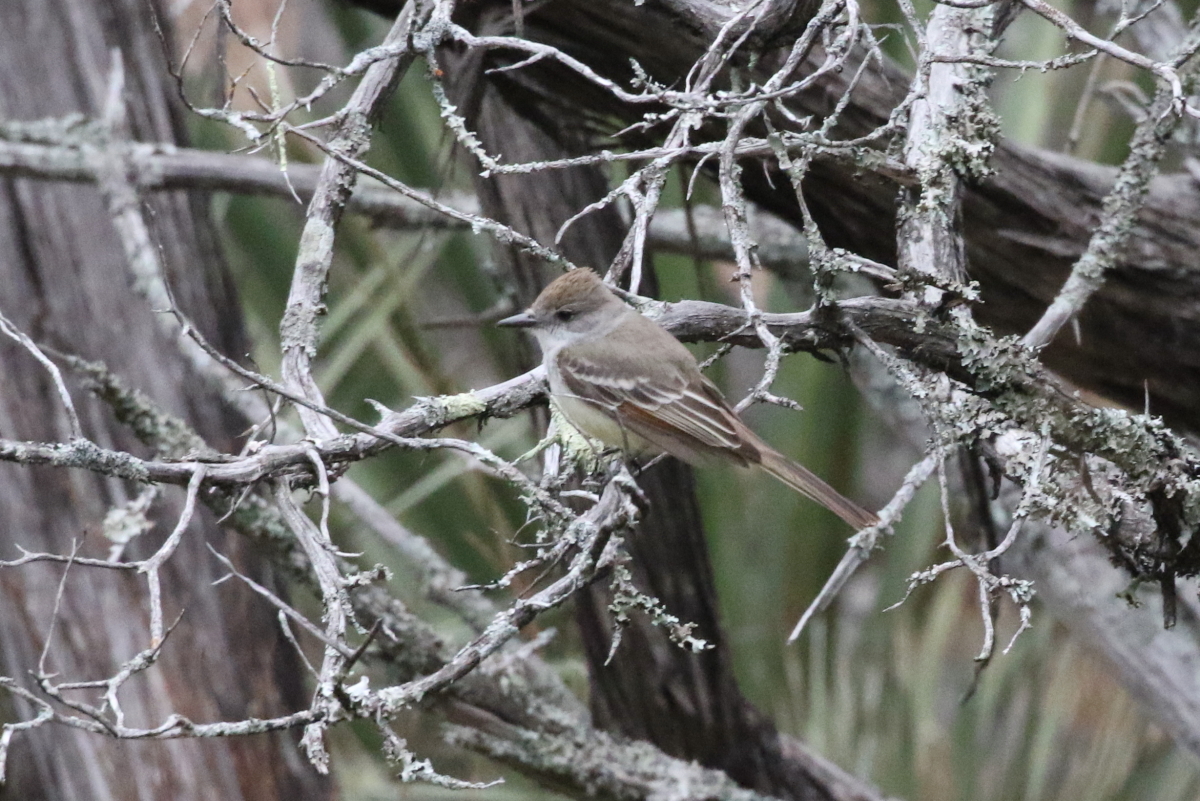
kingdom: Animalia
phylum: Chordata
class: Aves
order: Passeriformes
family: Tyrannidae
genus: Myiarchus
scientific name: Myiarchus cinerascens
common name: Ash-throated flycatcher
